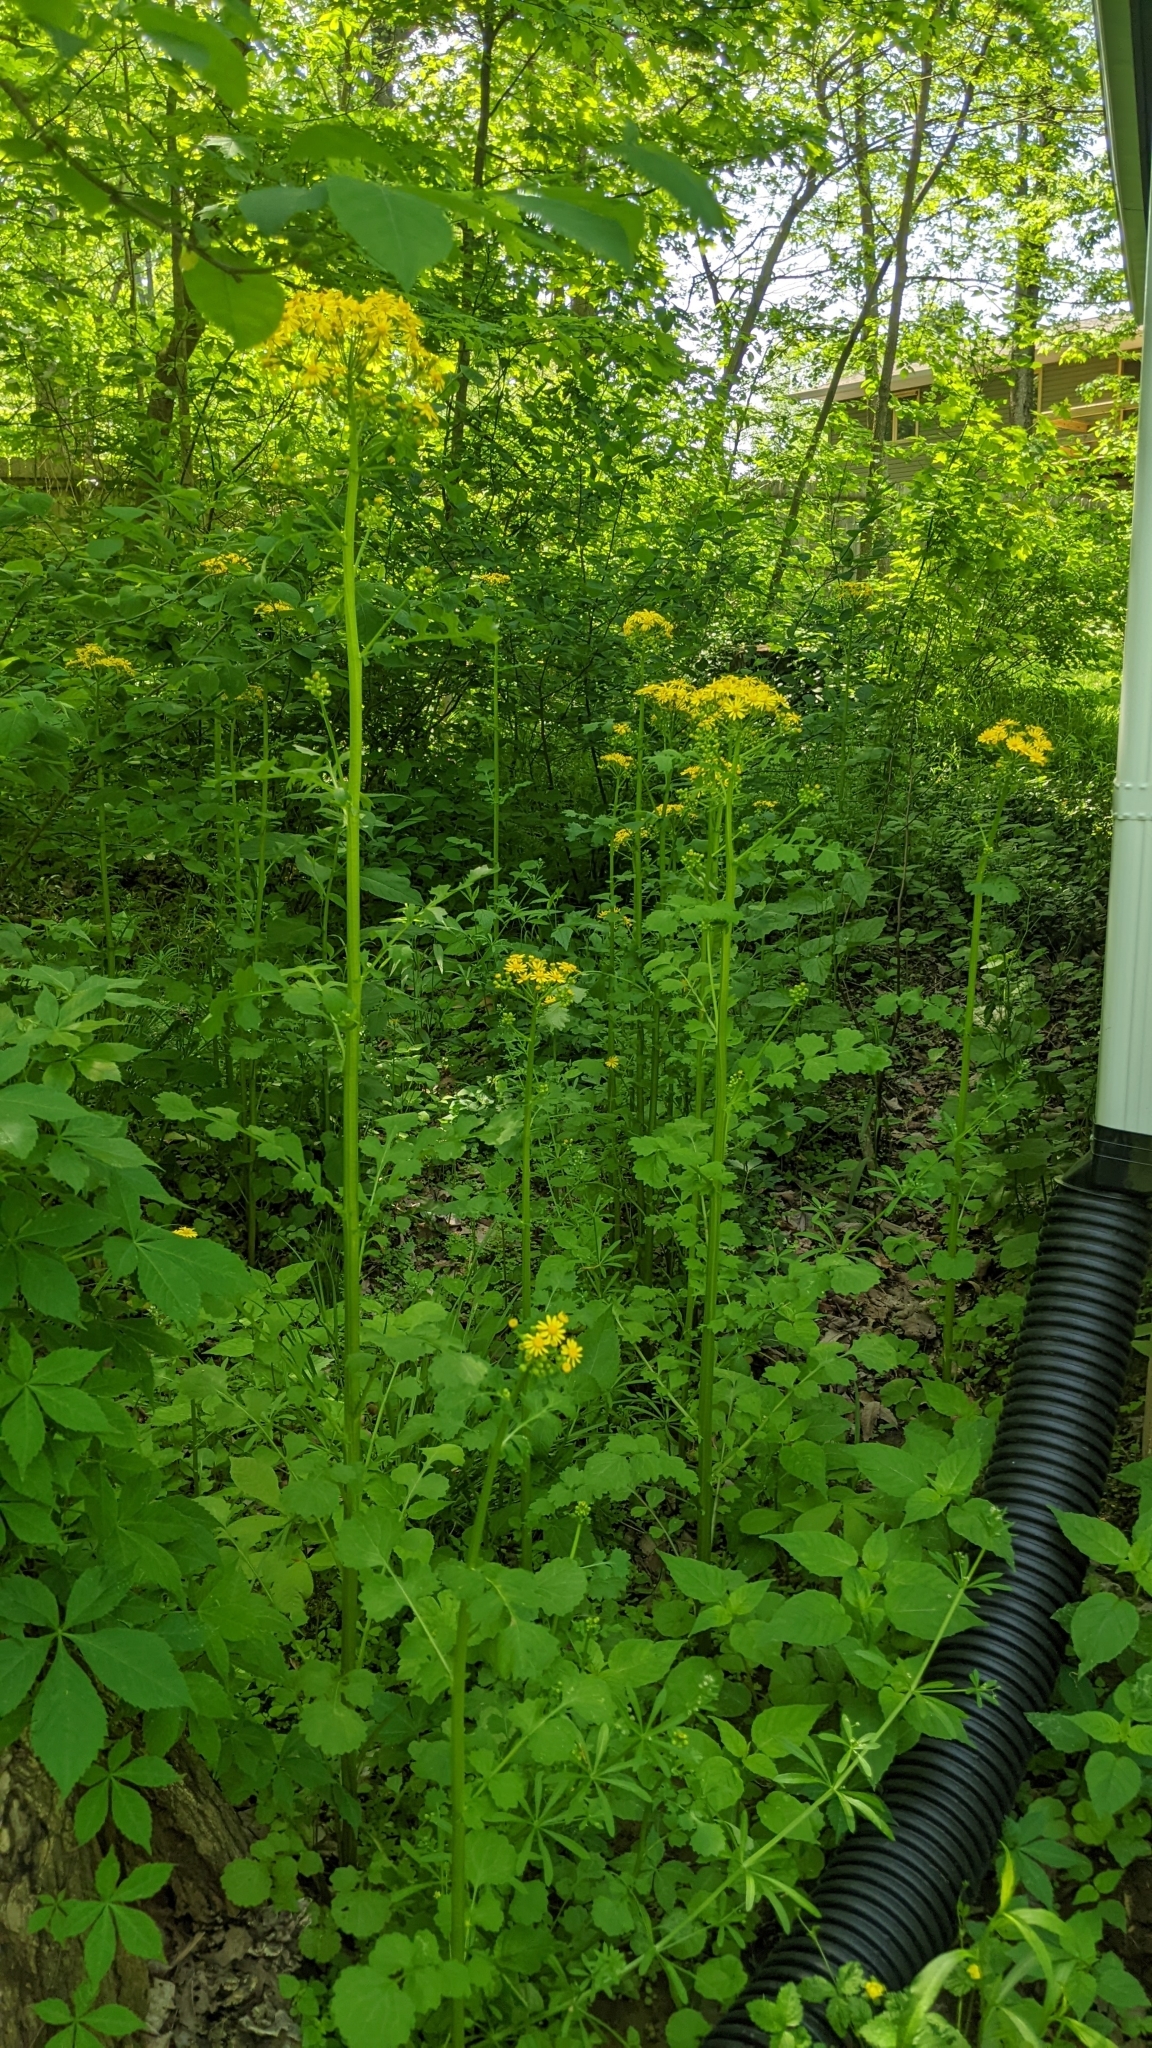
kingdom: Plantae
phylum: Tracheophyta
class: Magnoliopsida
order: Asterales
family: Asteraceae
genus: Packera
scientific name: Packera glabella
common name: Butterweed
